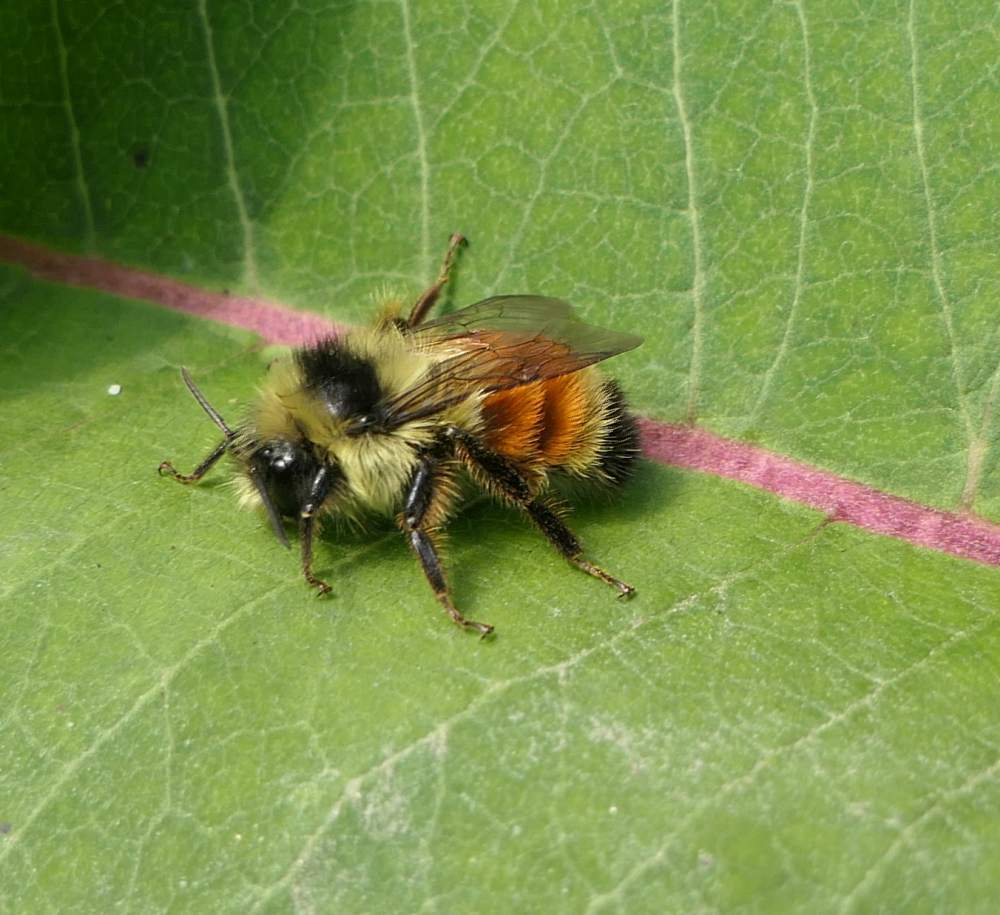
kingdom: Animalia
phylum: Arthropoda
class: Insecta
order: Hymenoptera
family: Apidae
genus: Bombus
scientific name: Bombus ternarius
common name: Tri-colored bumble bee
